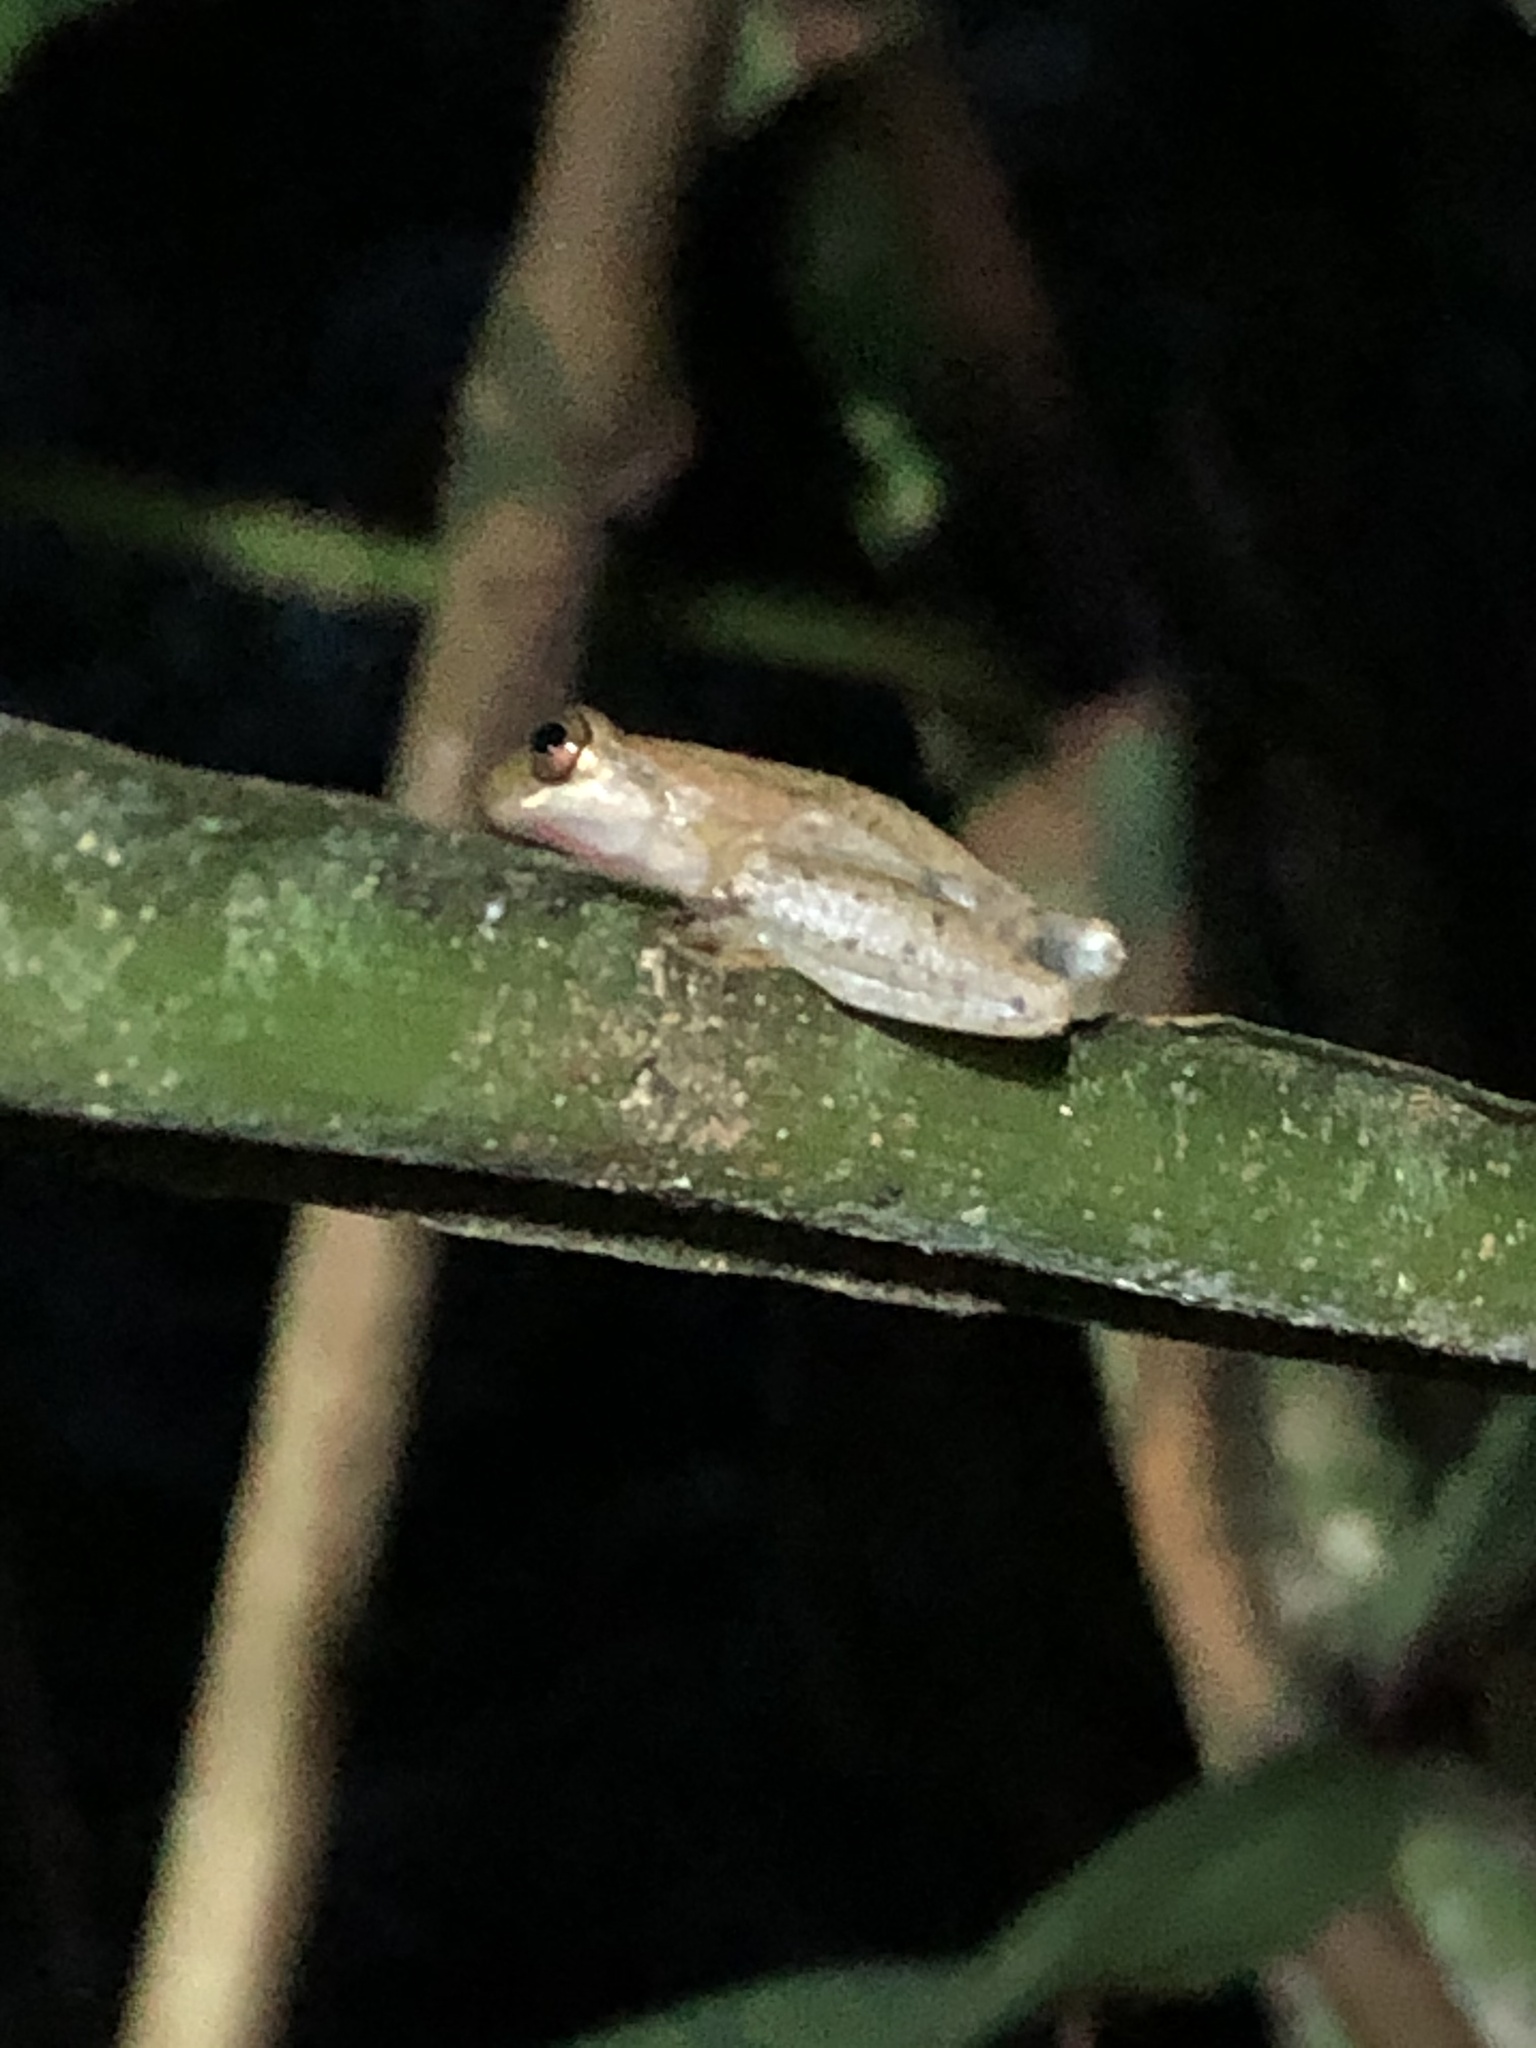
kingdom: Animalia
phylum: Chordata
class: Amphibia
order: Anura
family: Hylidae
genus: Dendropsophus
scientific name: Dendropsophus schubarti
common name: Schubart's rondonia treefrog
